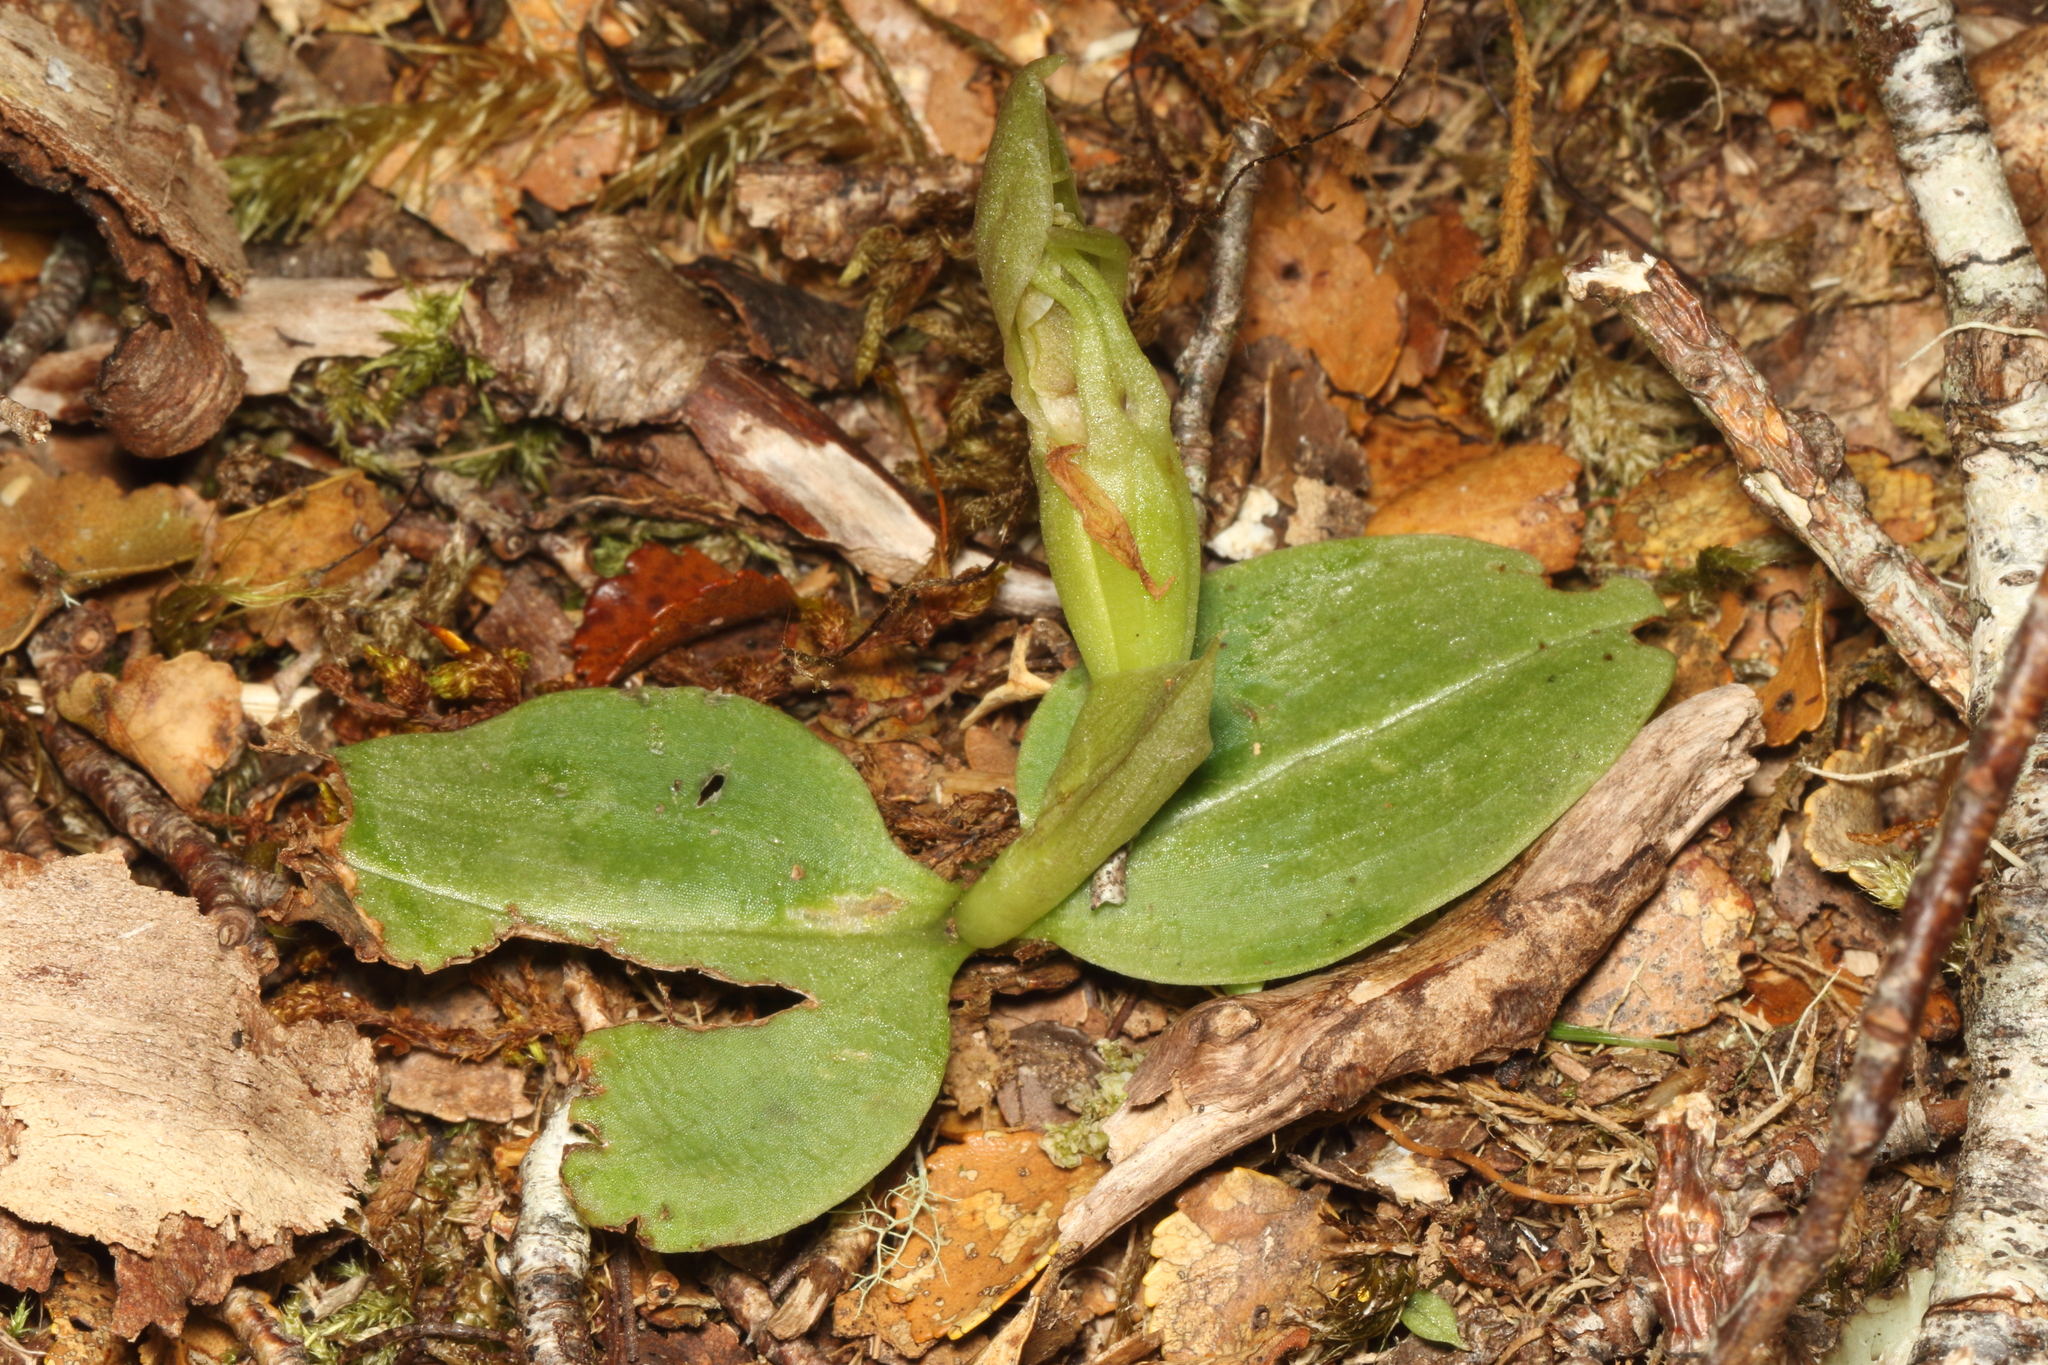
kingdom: Plantae
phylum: Tracheophyta
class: Liliopsida
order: Asparagales
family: Orchidaceae
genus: Chiloglottis
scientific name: Chiloglottis cornuta
